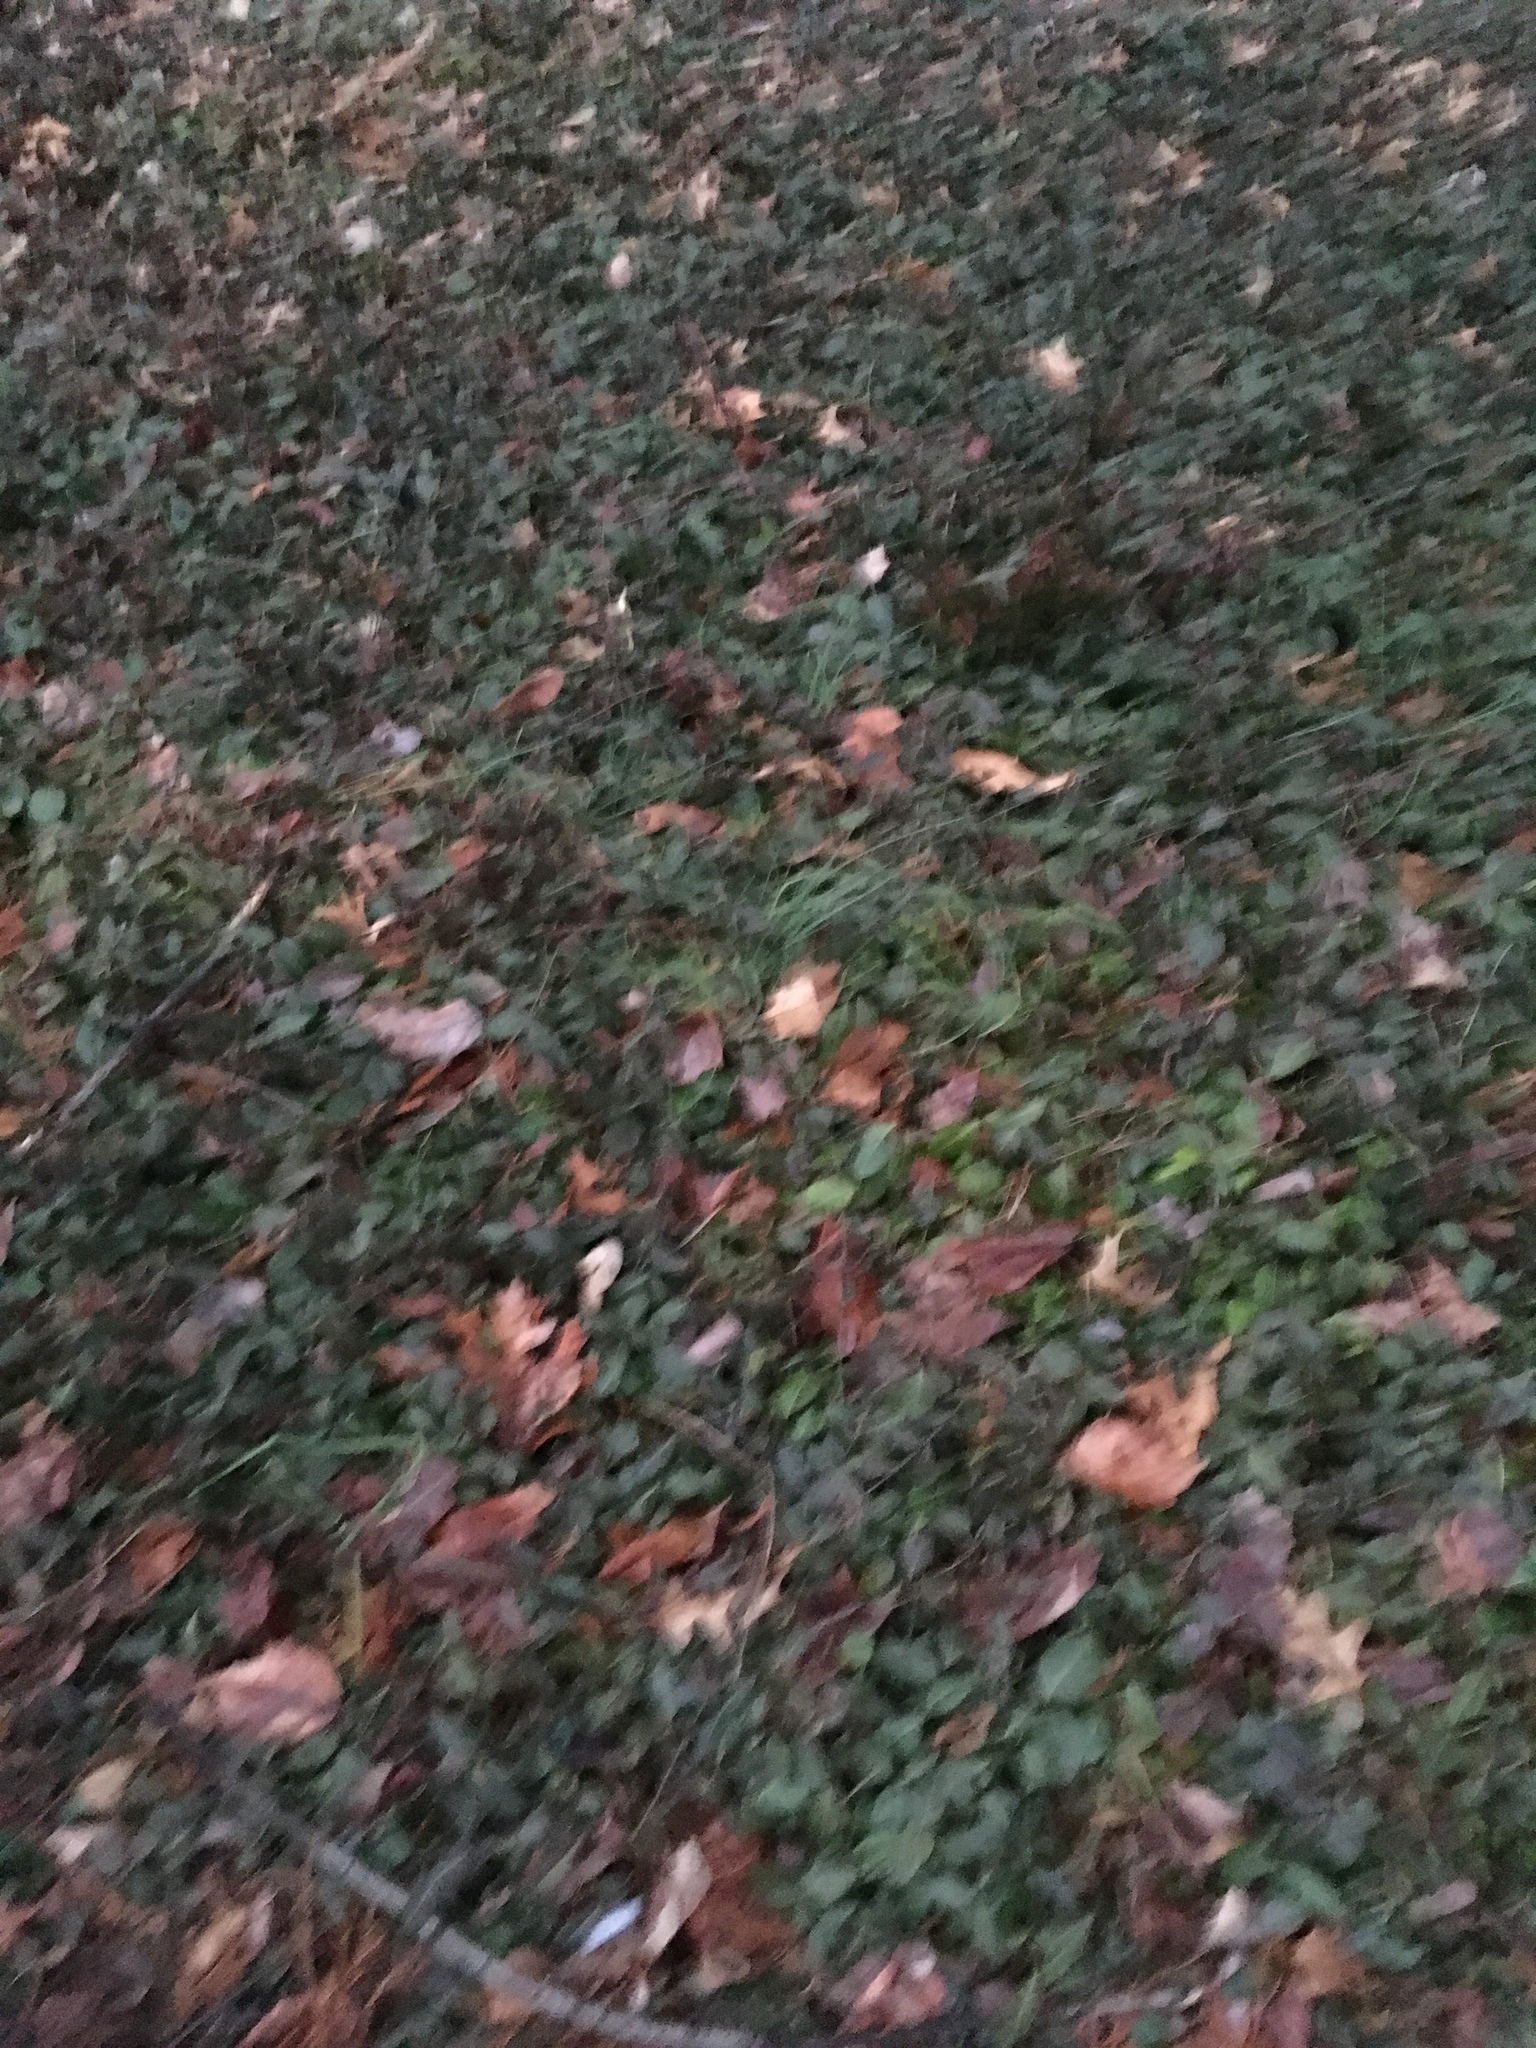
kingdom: Plantae
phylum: Tracheophyta
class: Magnoliopsida
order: Celastrales
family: Celastraceae
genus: Euonymus
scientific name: Euonymus fortunei
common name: Climbing euonymus
